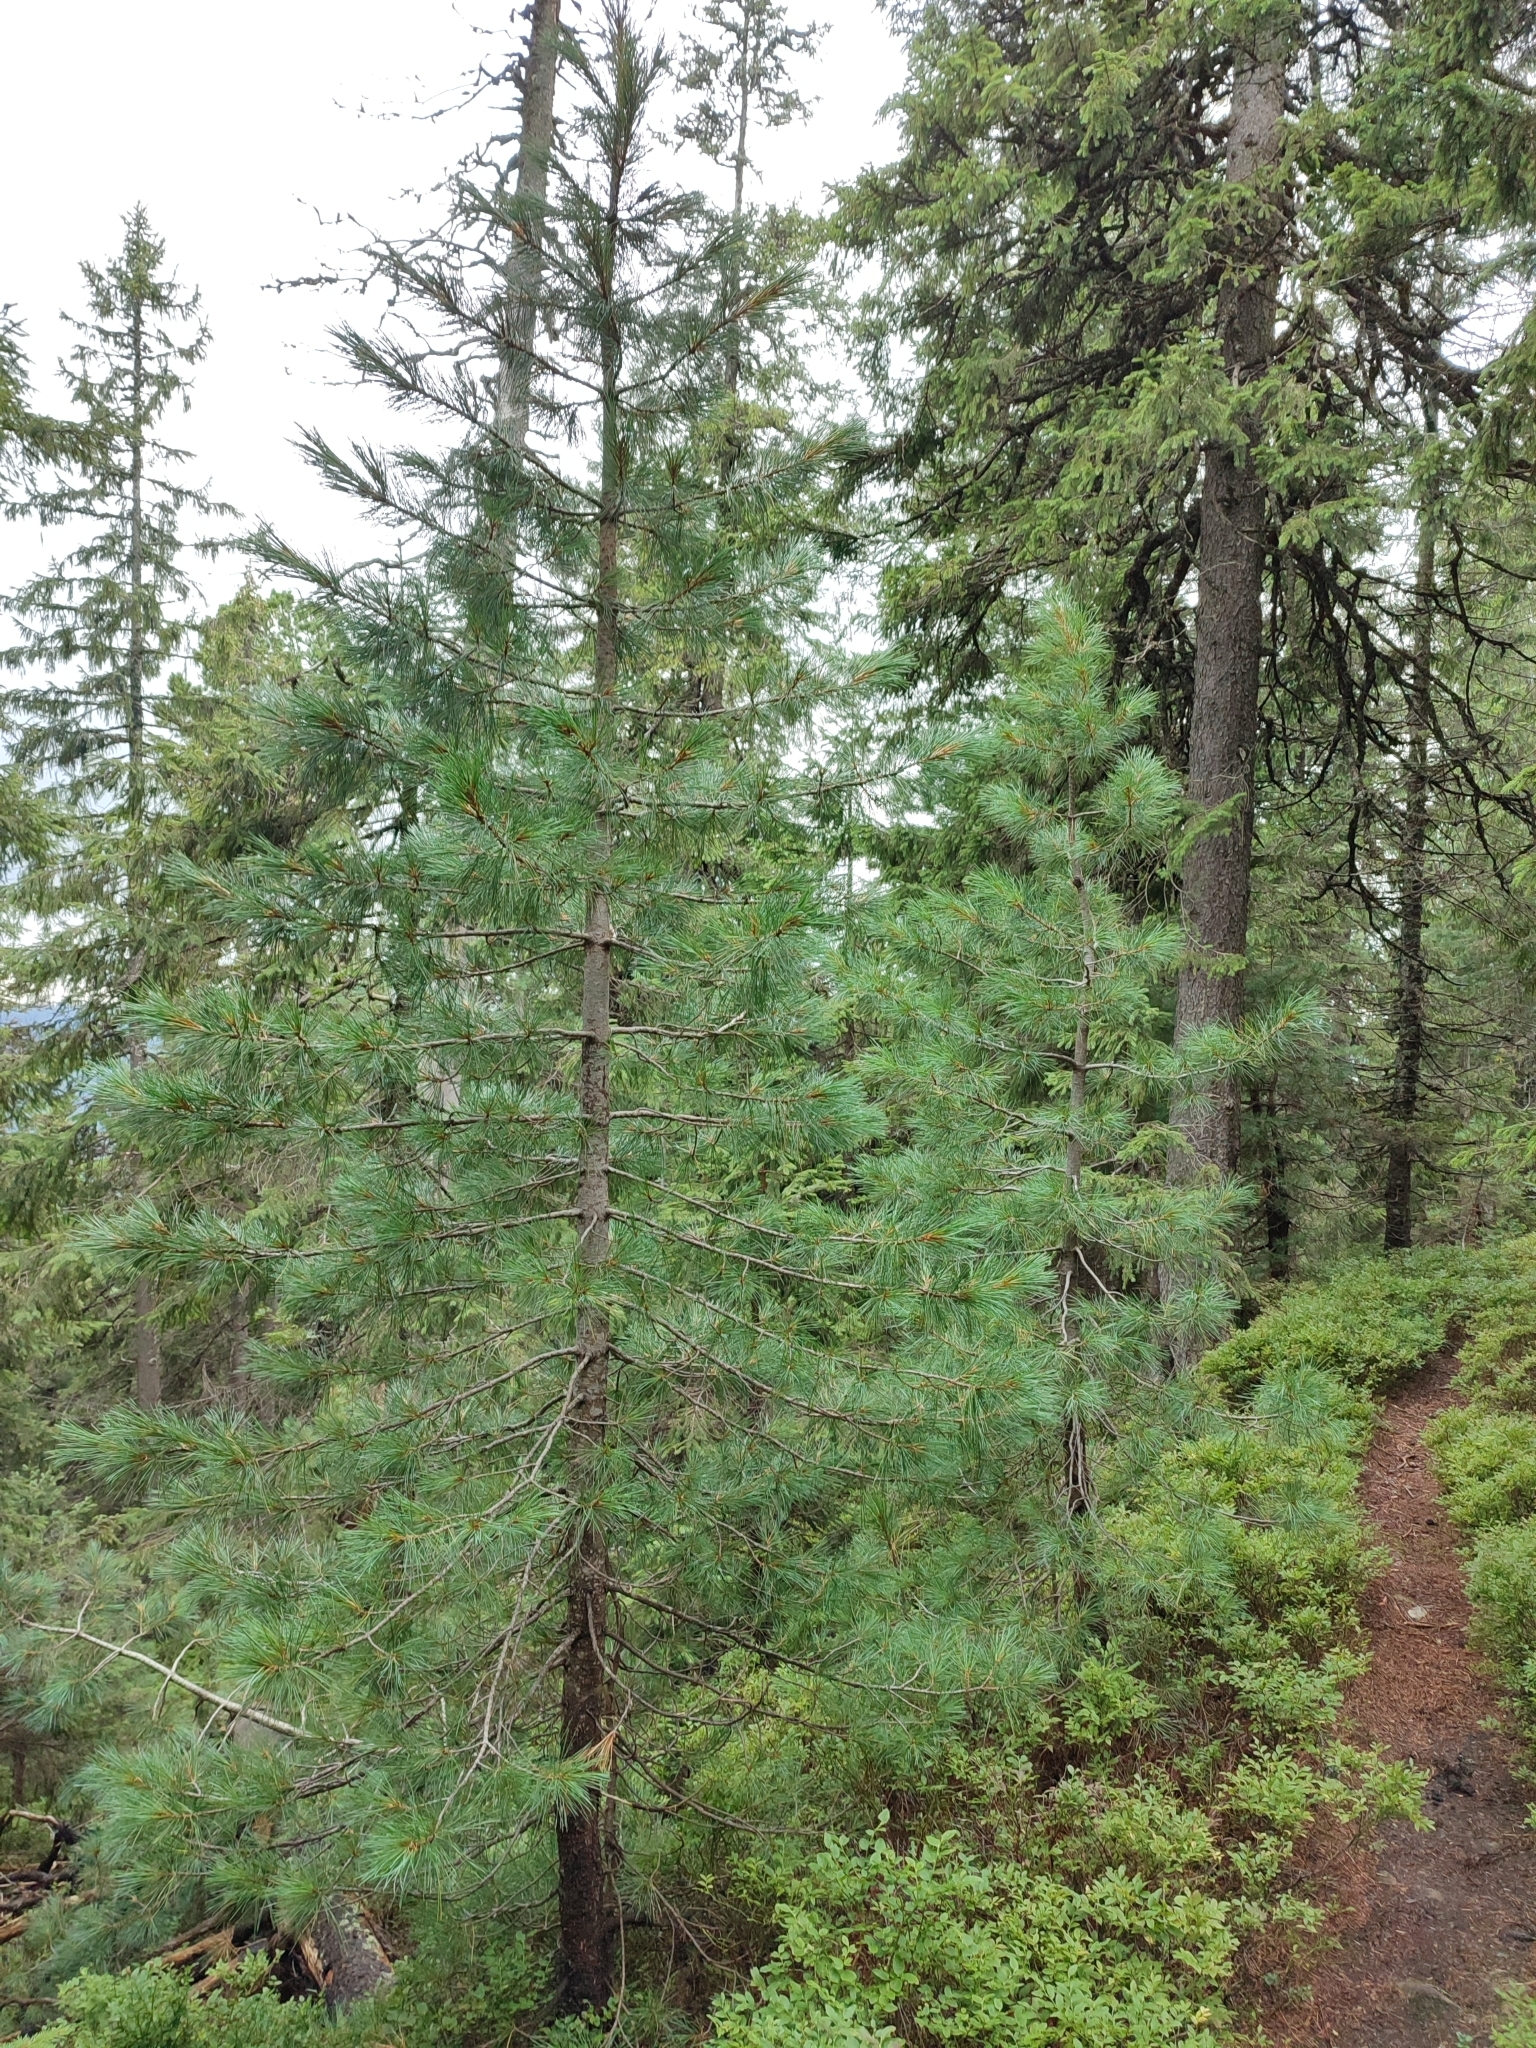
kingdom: Plantae
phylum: Tracheophyta
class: Pinopsida
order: Pinales
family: Pinaceae
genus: Pinus
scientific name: Pinus cembra
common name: Arolla pine
